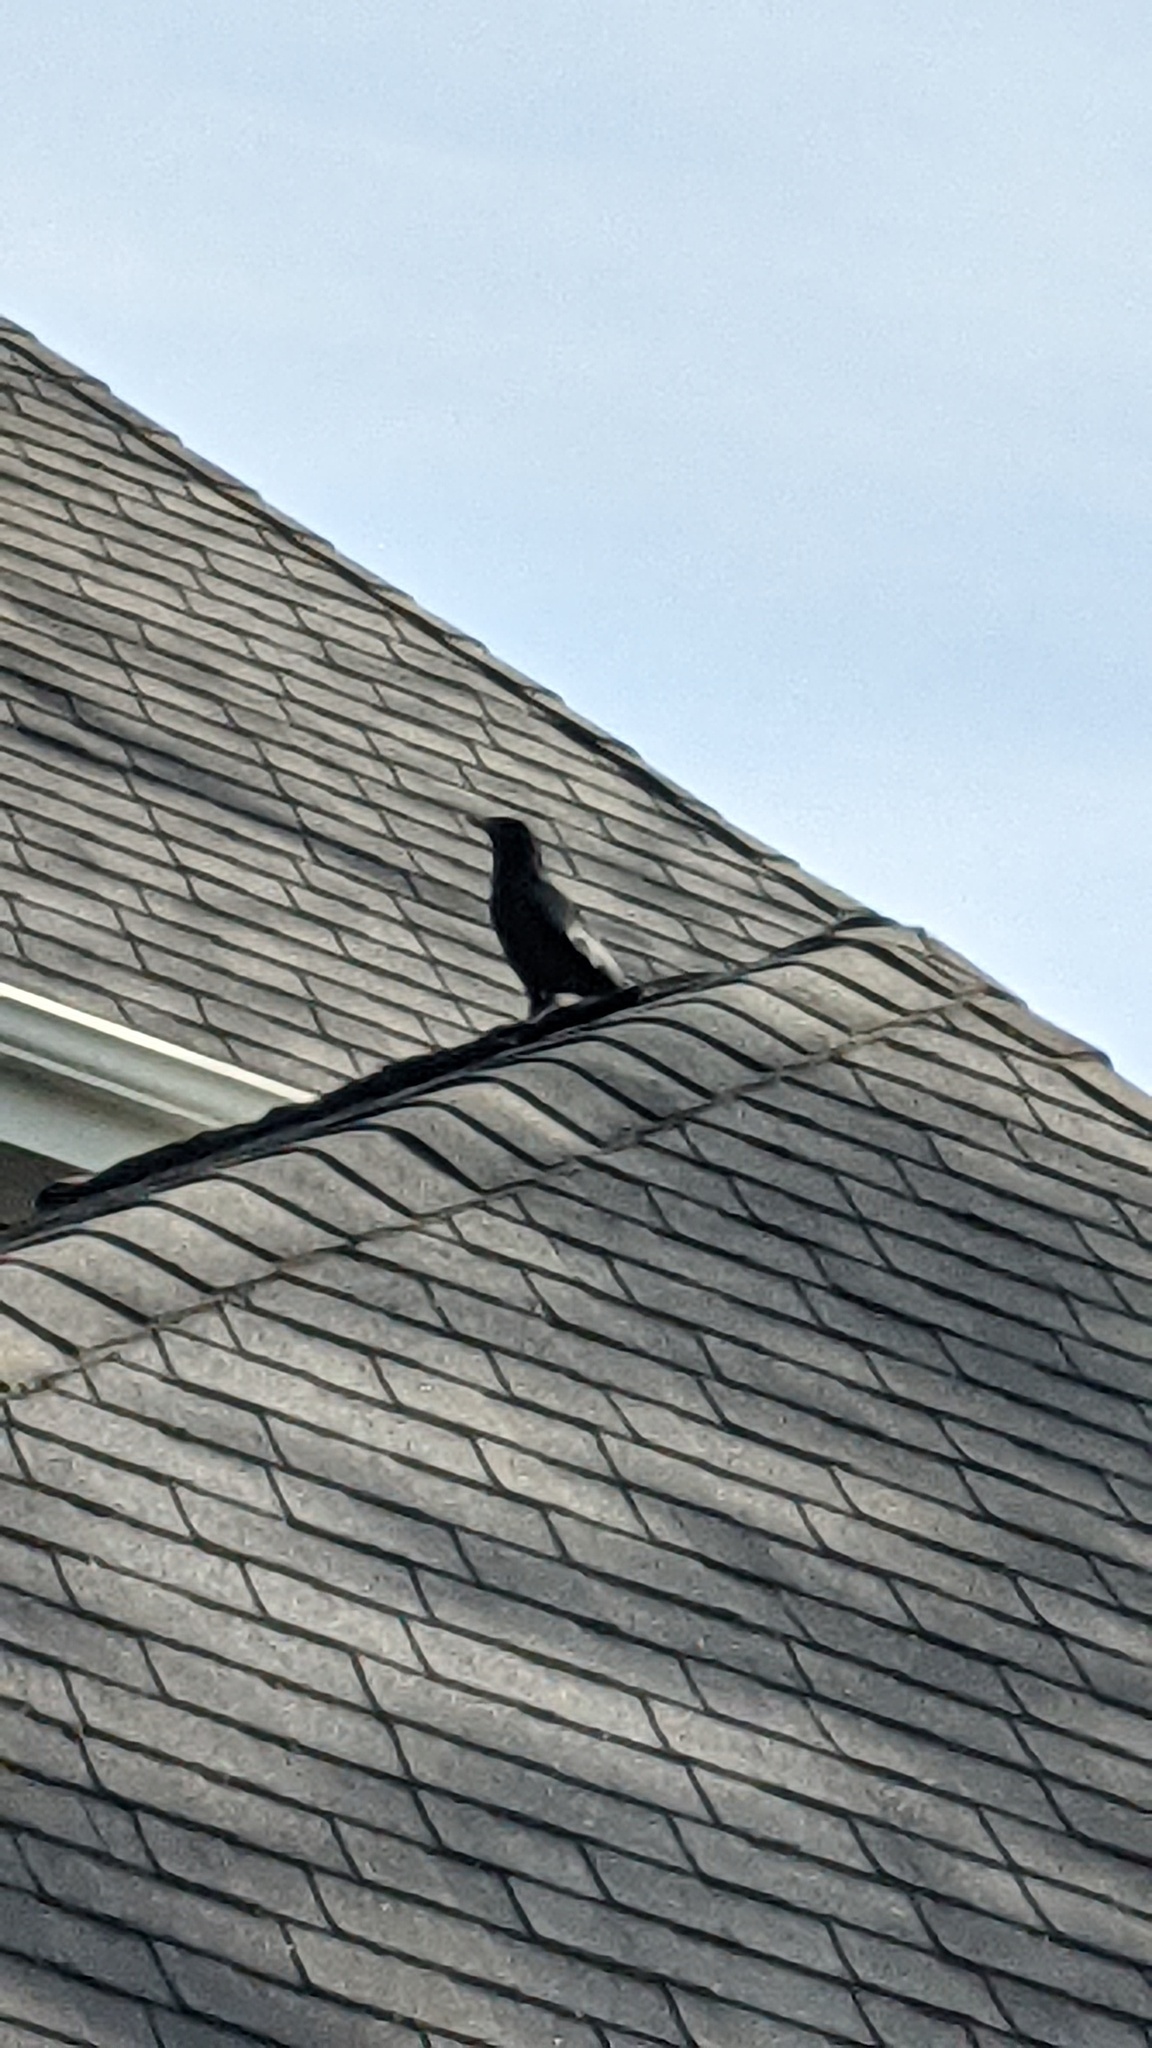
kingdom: Animalia
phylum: Chordata
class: Aves
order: Passeriformes
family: Corvidae
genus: Corvus
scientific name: Corvus brachyrhynchos
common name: American crow
